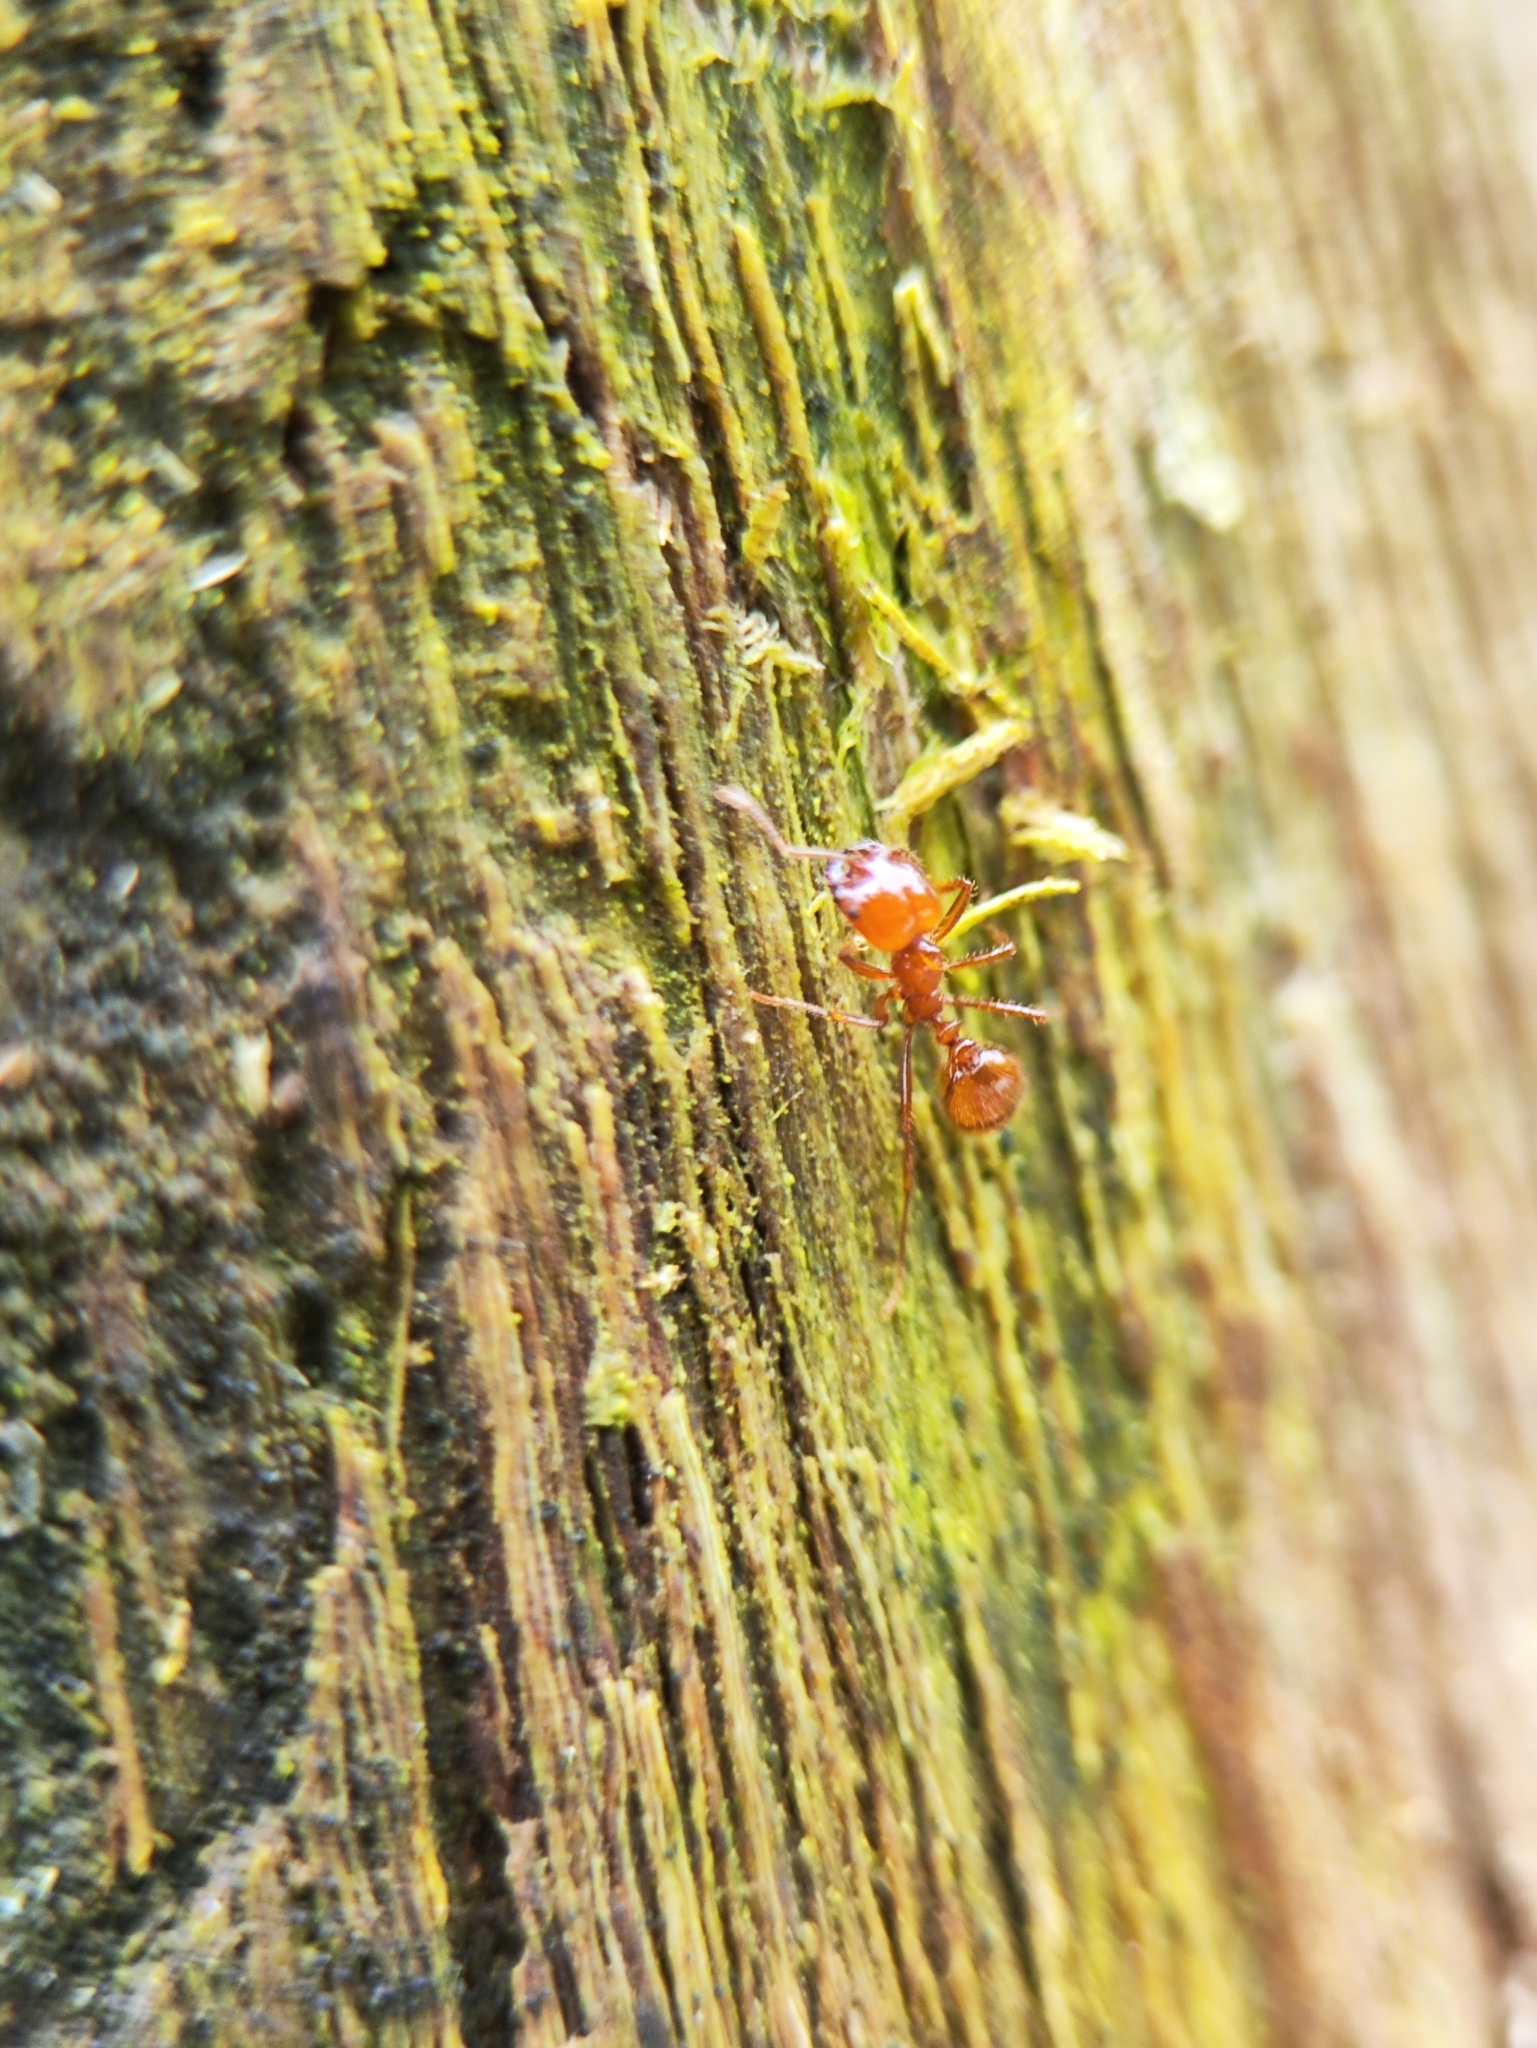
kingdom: Animalia
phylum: Arthropoda
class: Insecta
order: Hymenoptera
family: Formicidae
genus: Solenopsis
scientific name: Solenopsis geminata
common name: Tropical fire ant
